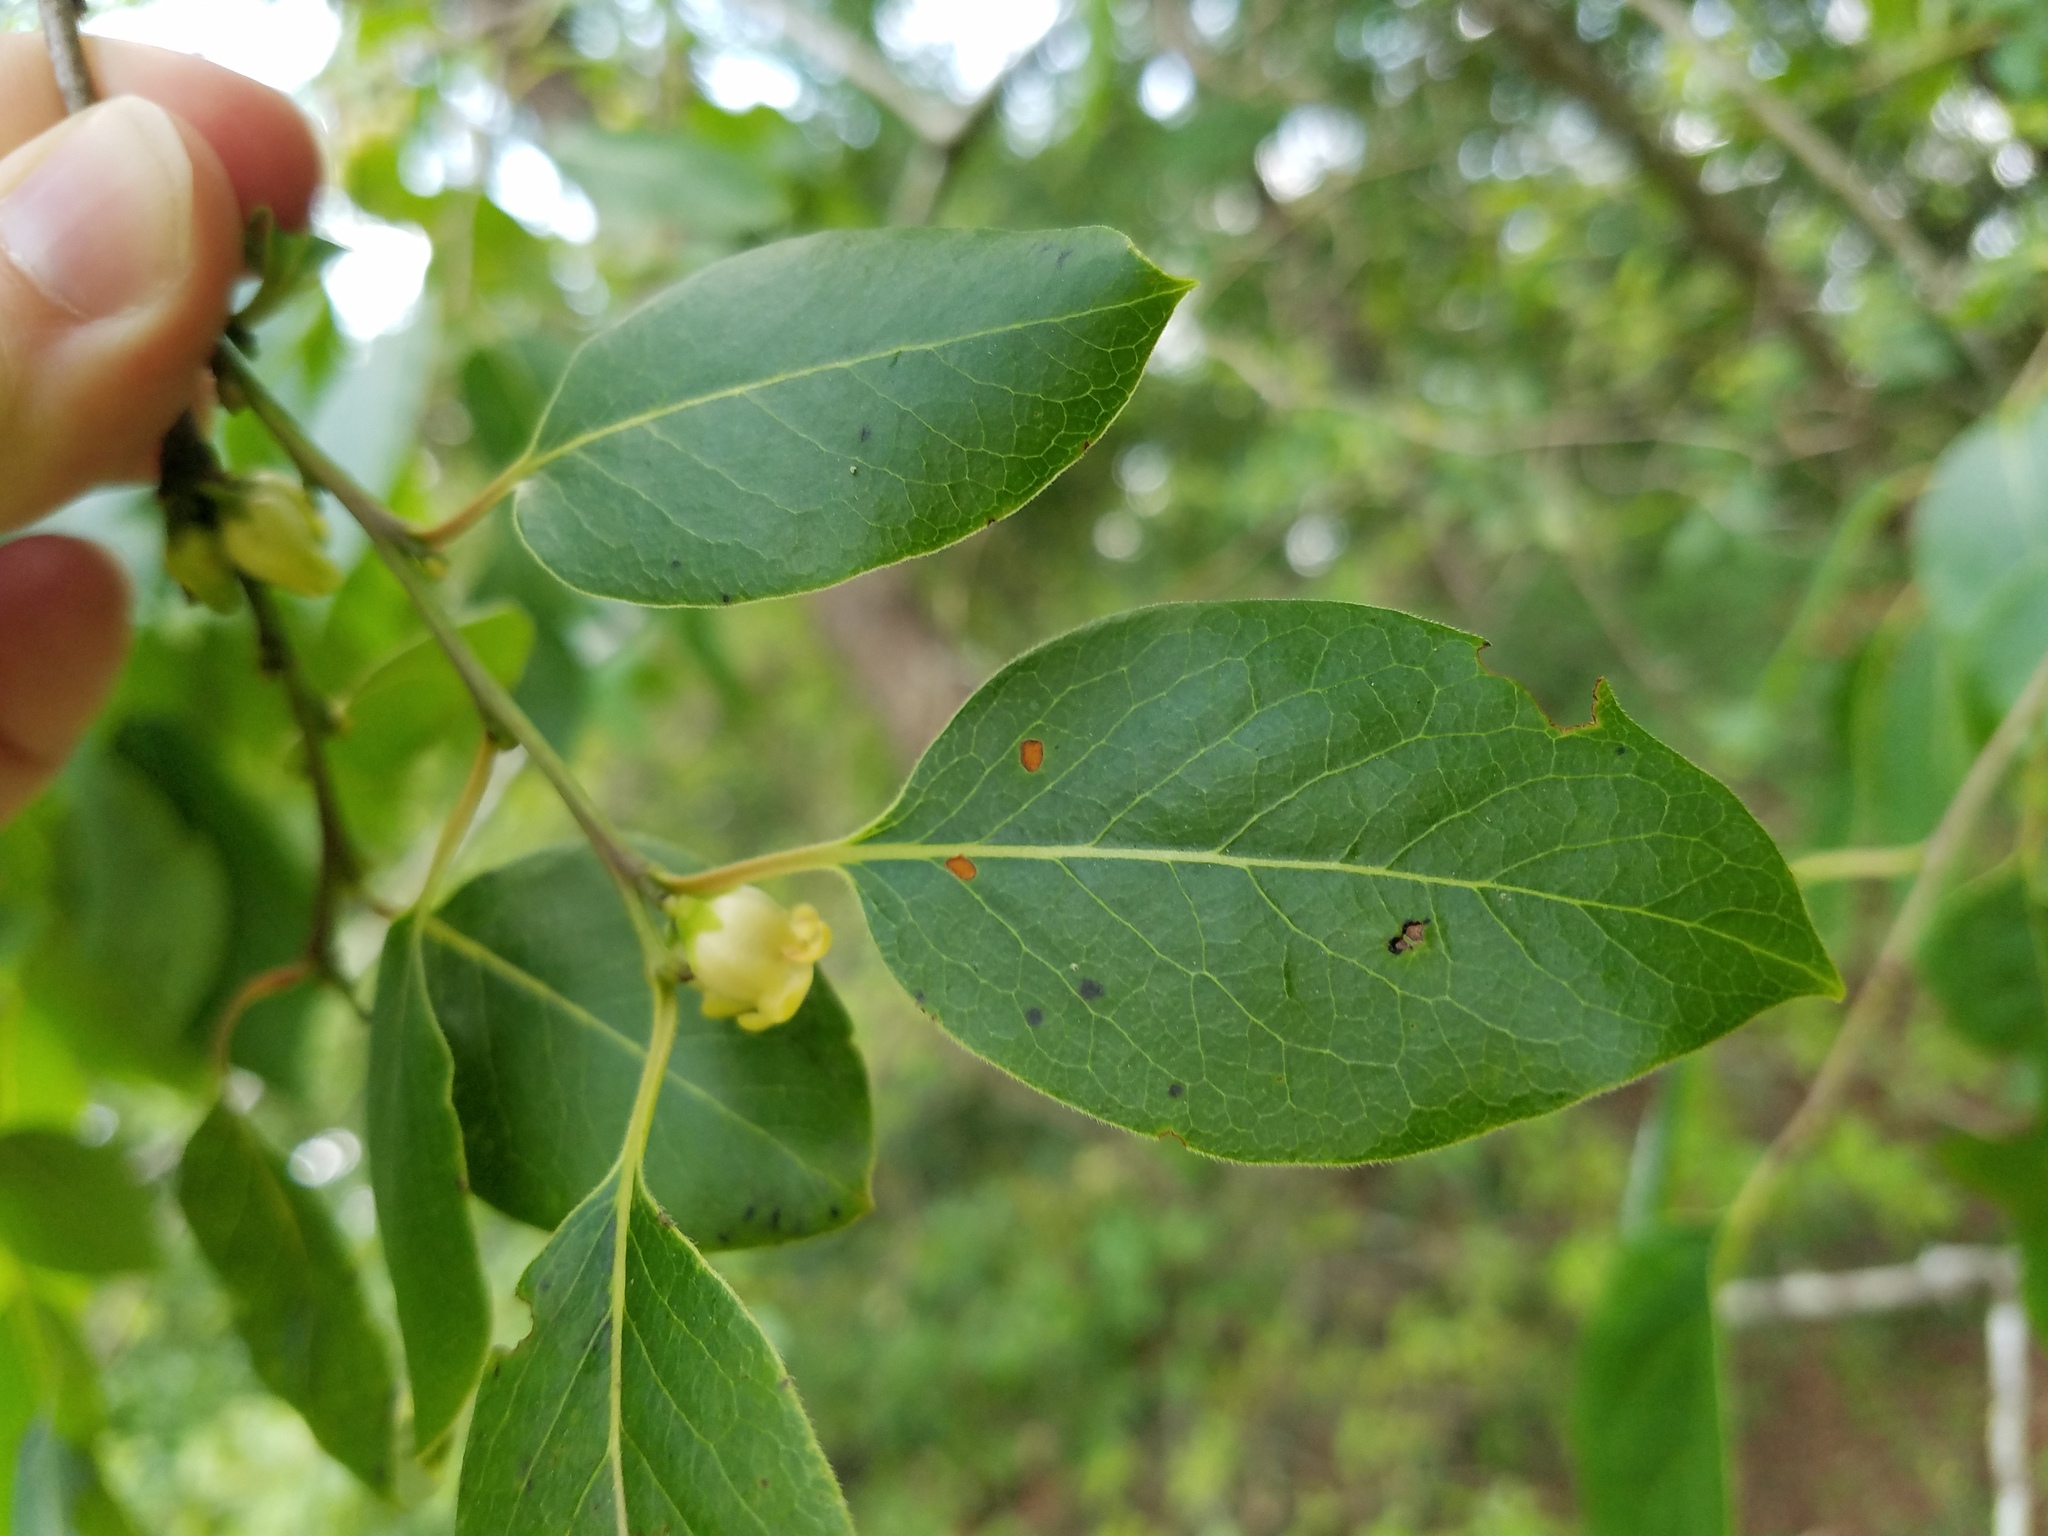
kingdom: Plantae
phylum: Tracheophyta
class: Magnoliopsida
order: Ericales
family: Ebenaceae
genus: Diospyros
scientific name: Diospyros virginiana
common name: Persimmon
